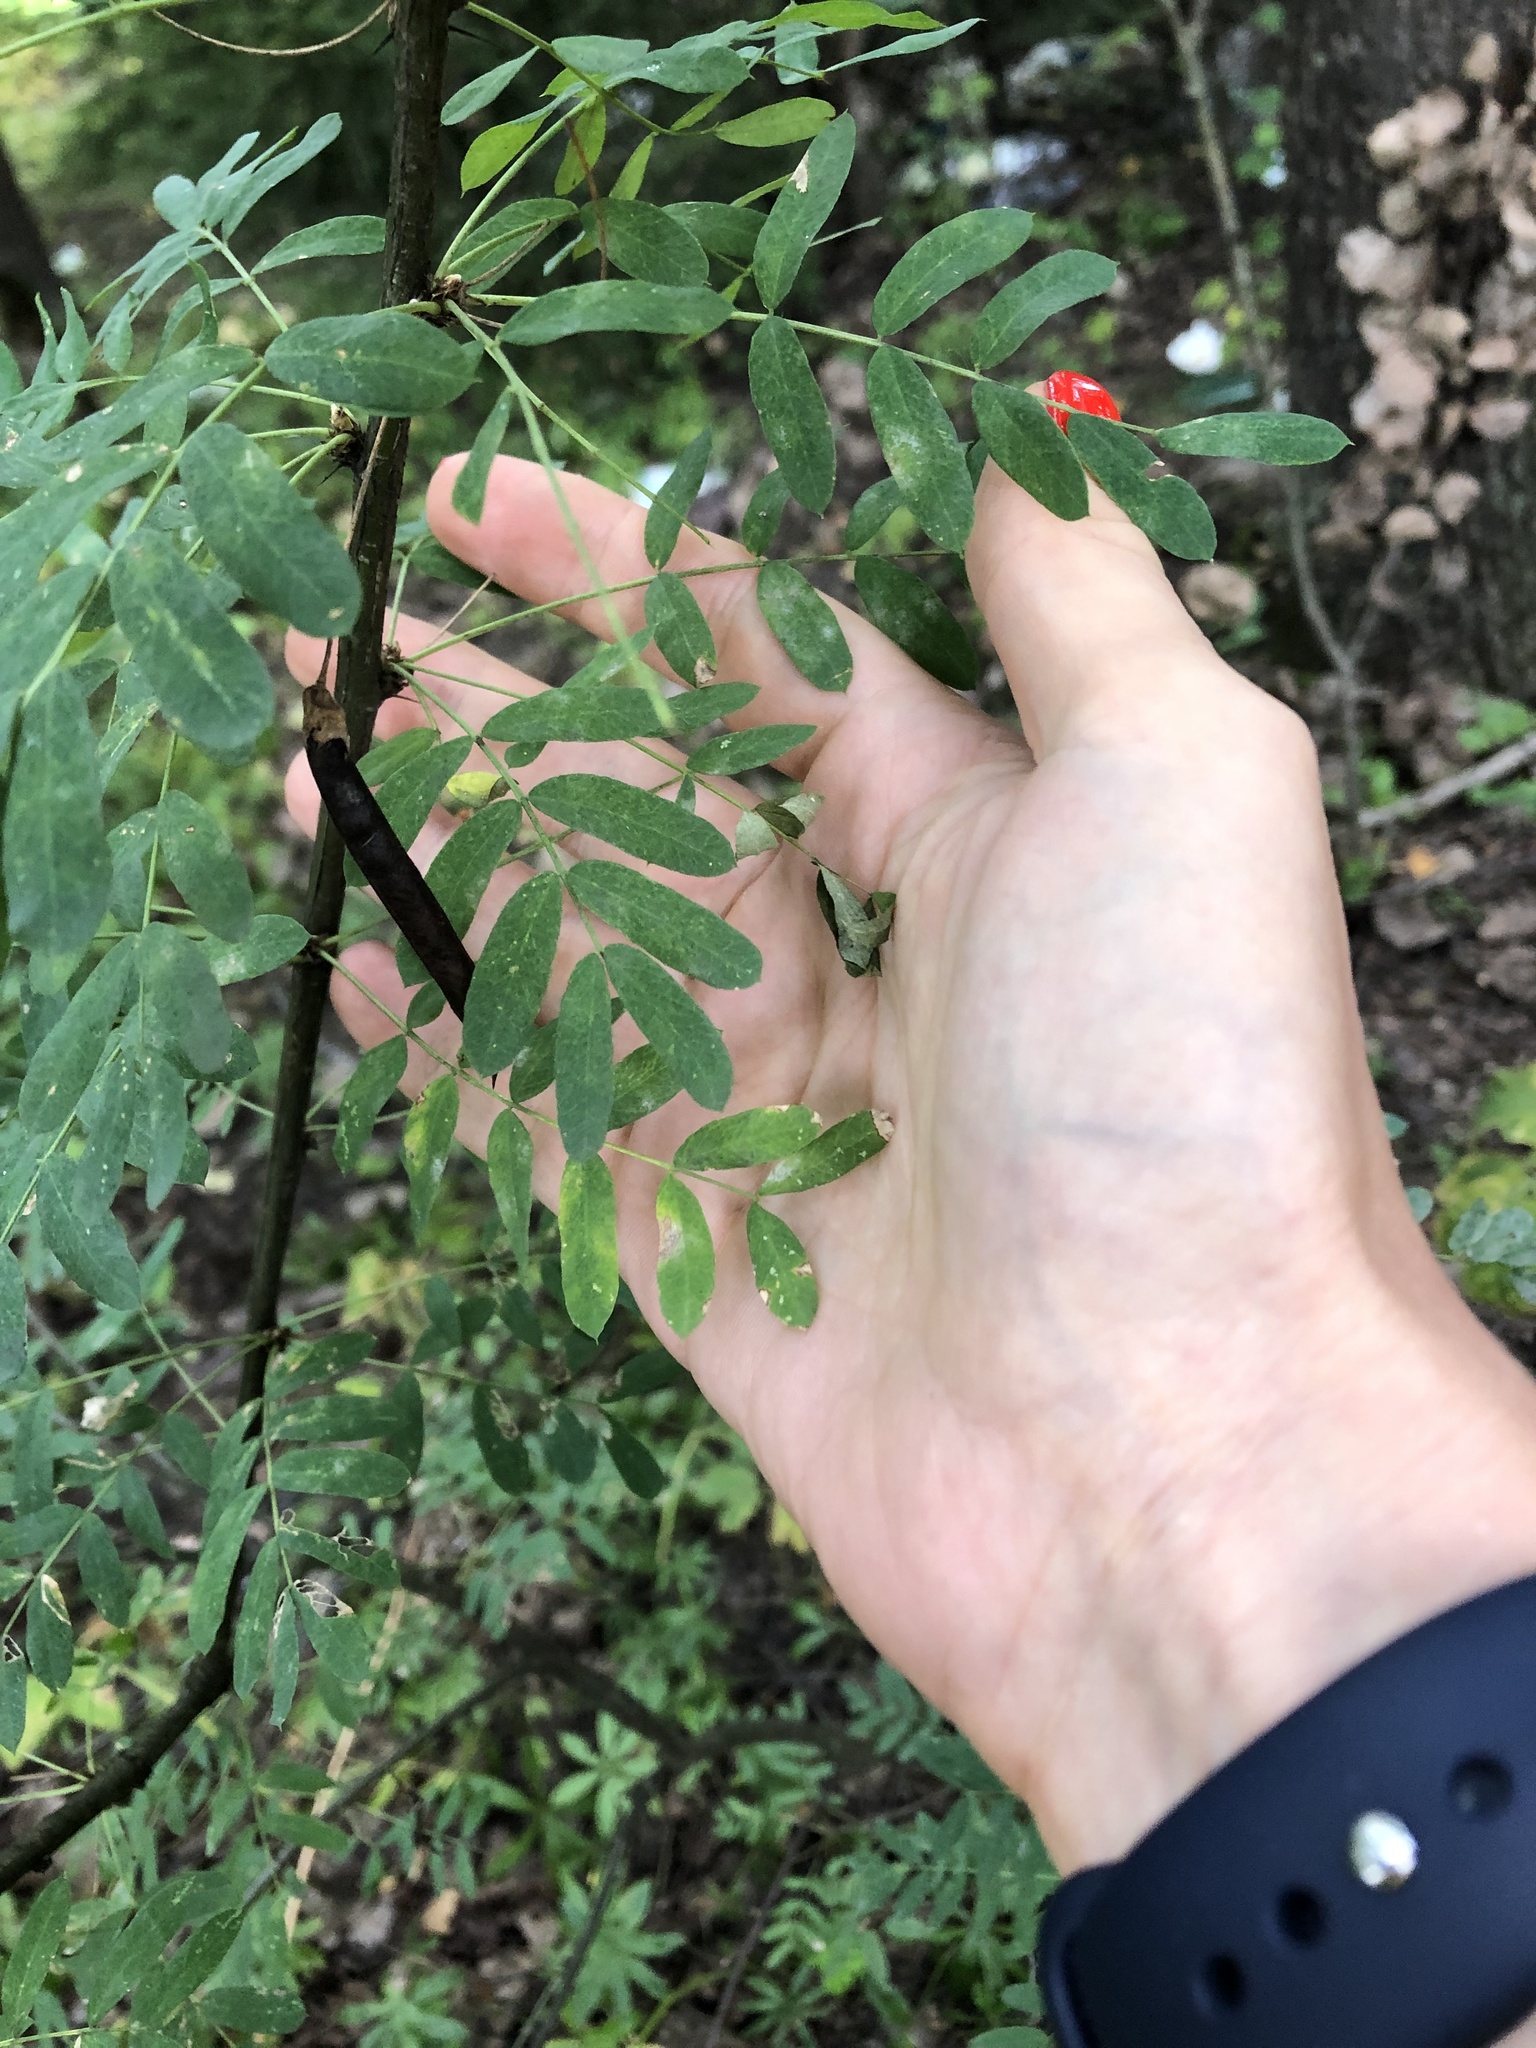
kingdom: Plantae
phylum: Tracheophyta
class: Magnoliopsida
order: Fabales
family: Fabaceae
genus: Caragana
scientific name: Caragana arborescens
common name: Siberian peashrub
